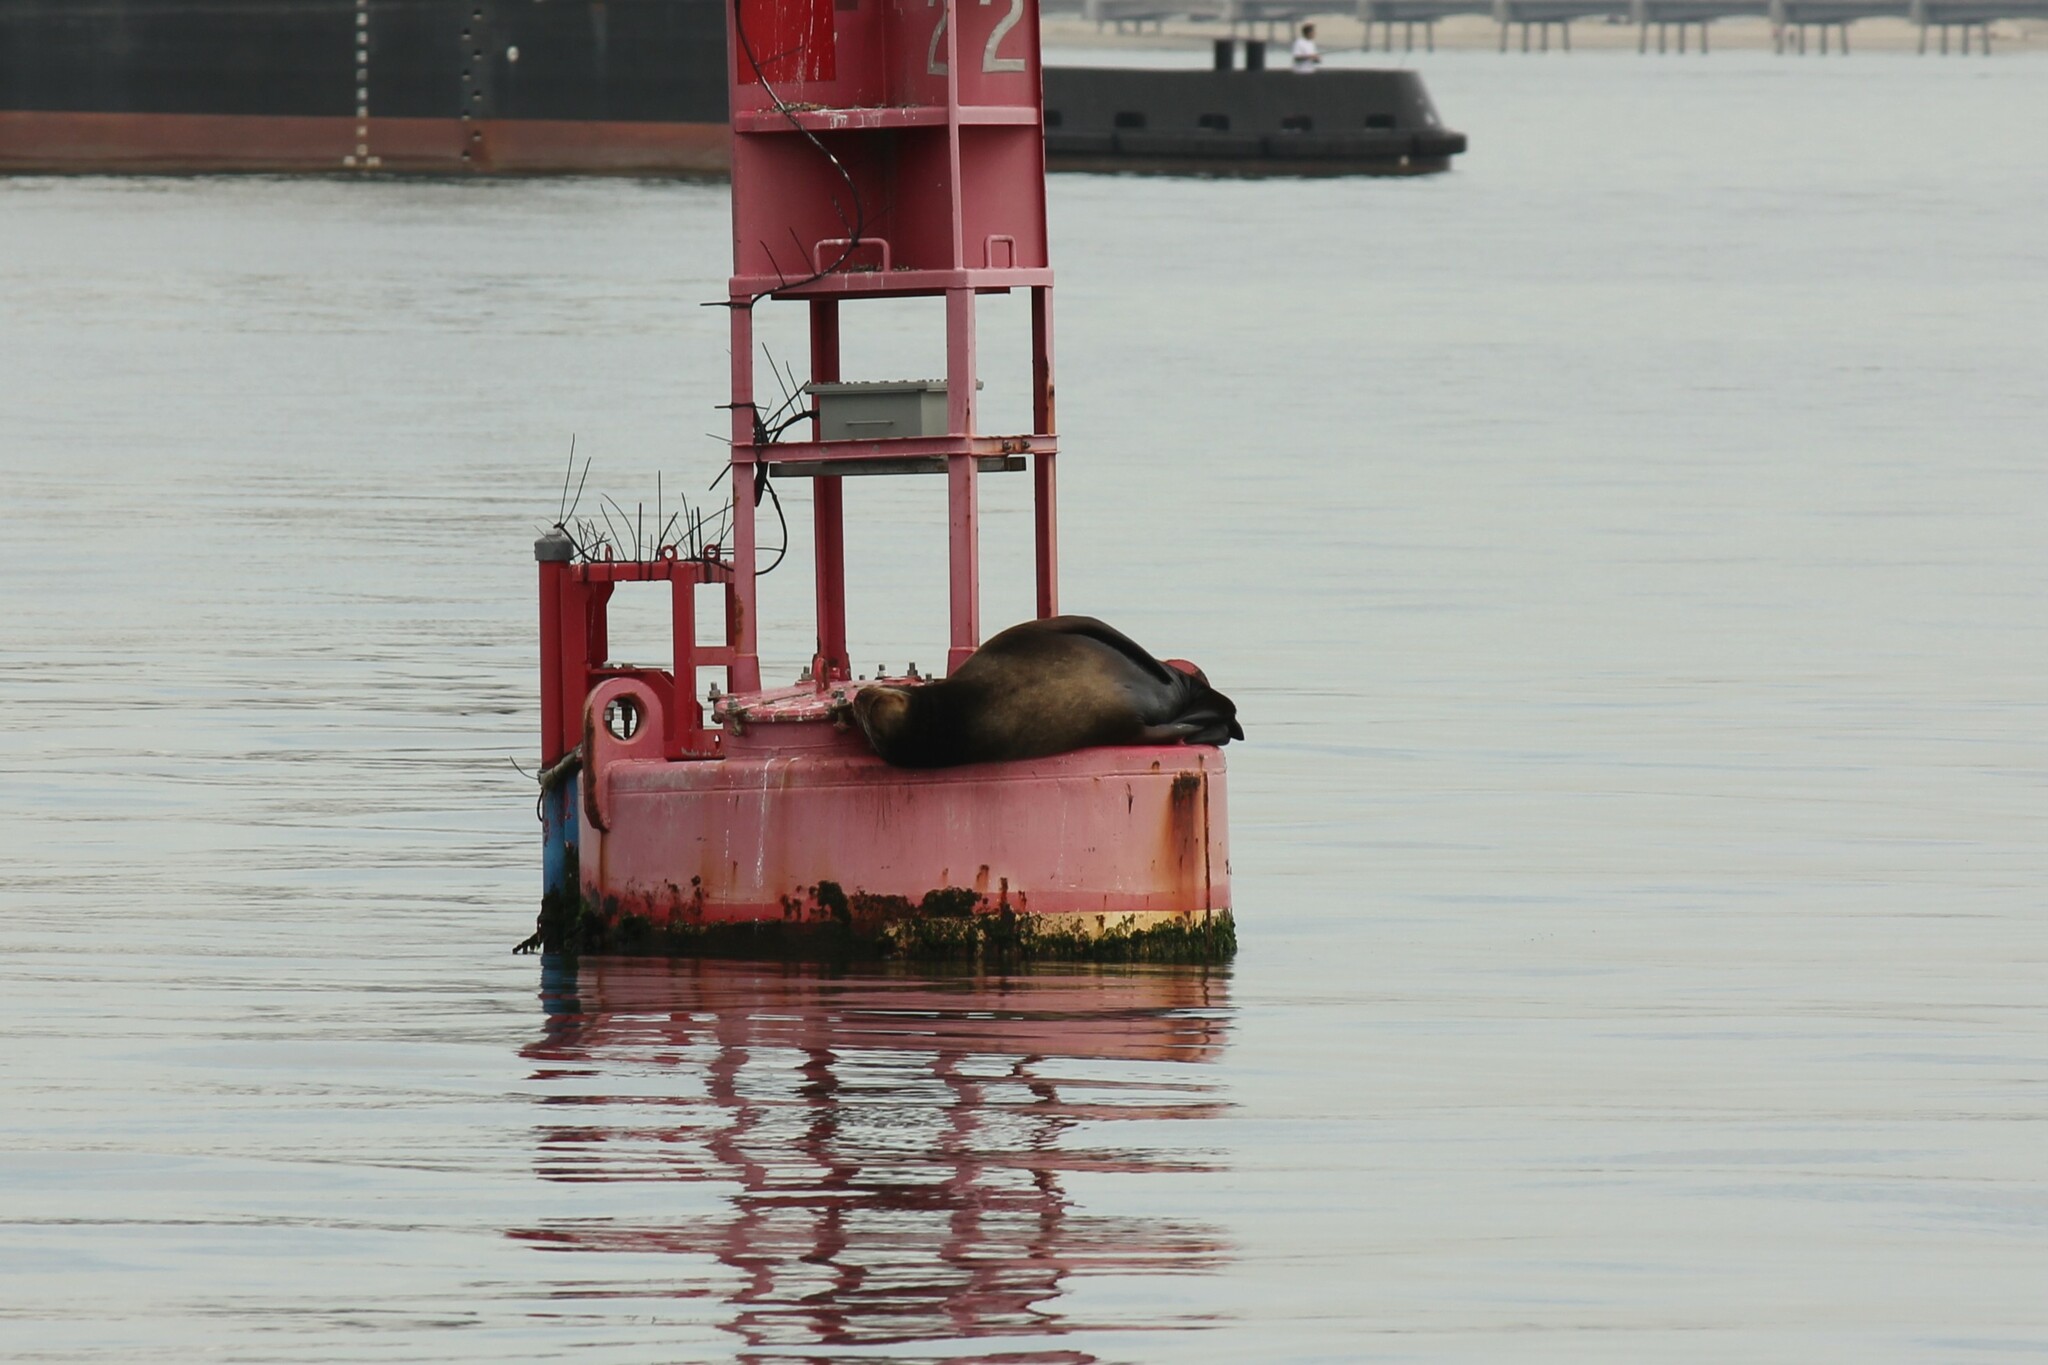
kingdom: Animalia
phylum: Chordata
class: Mammalia
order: Carnivora
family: Otariidae
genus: Zalophus
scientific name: Zalophus californianus
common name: California sea lion
